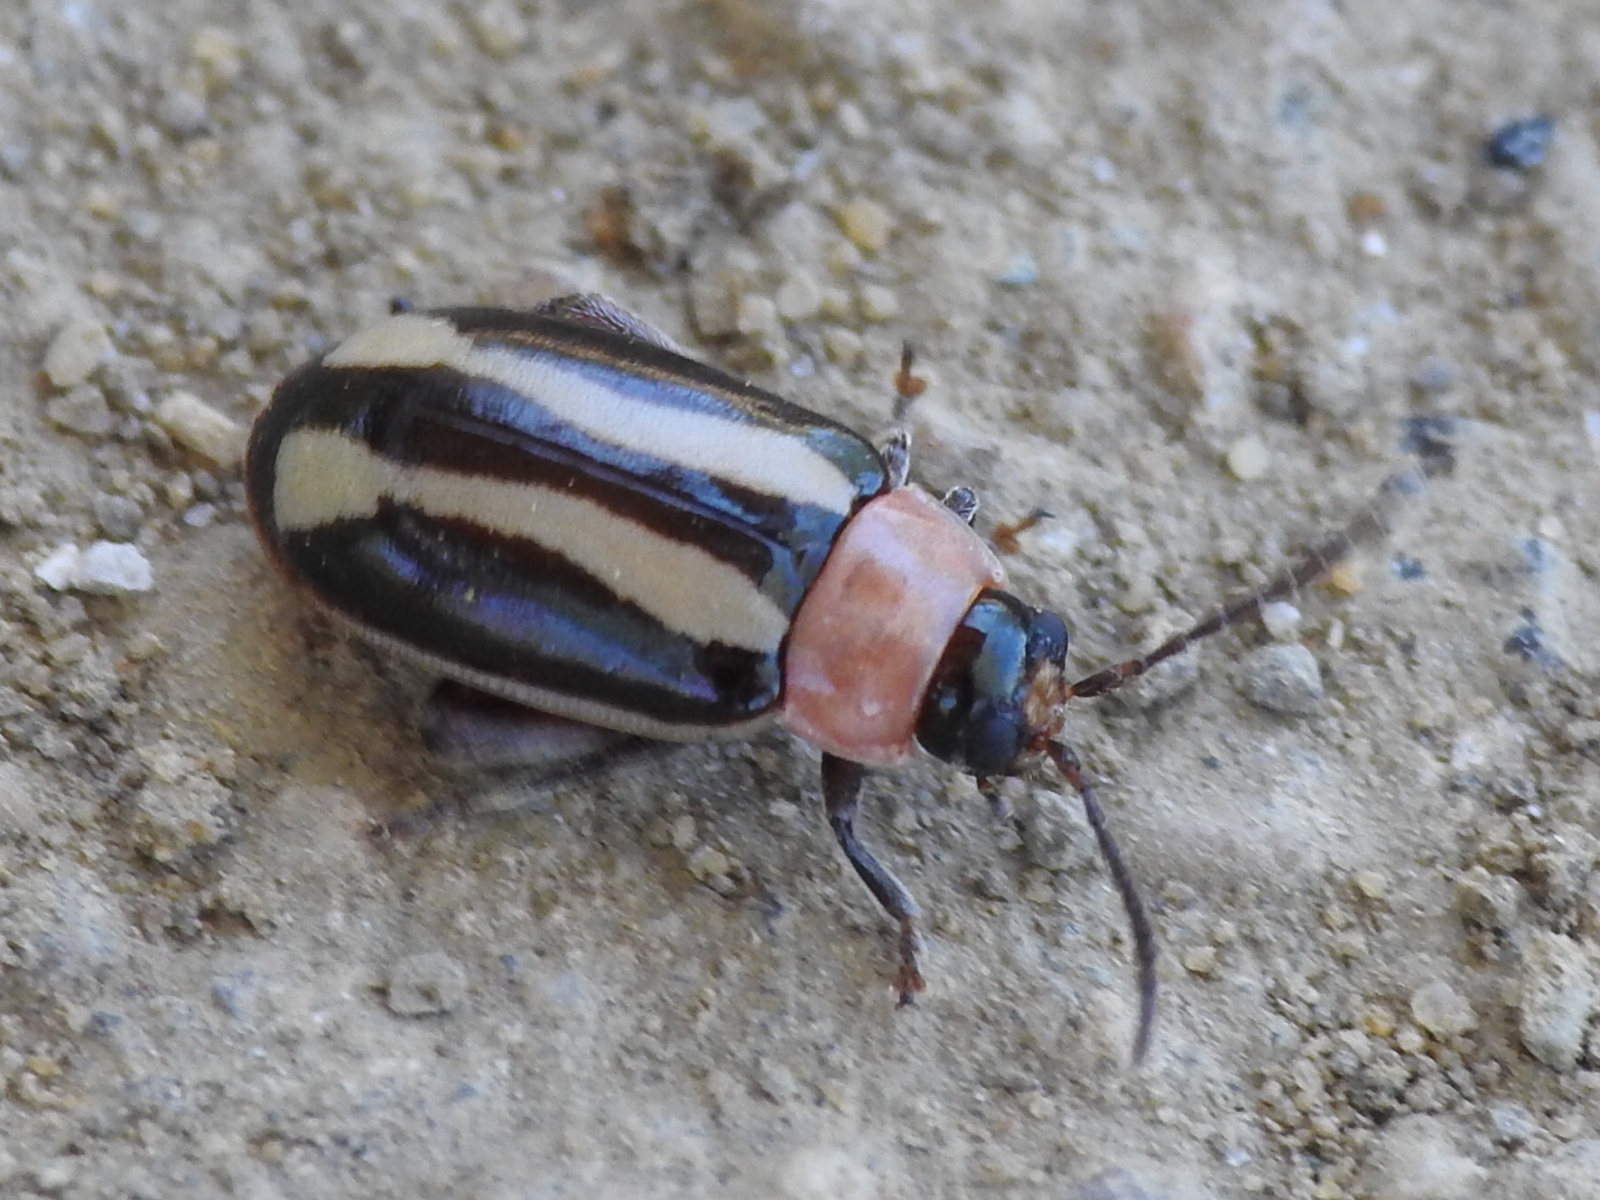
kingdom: Animalia
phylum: Arthropoda
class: Insecta
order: Coleoptera
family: Chrysomelidae
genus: Kuschelina
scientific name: Kuschelina laeta
